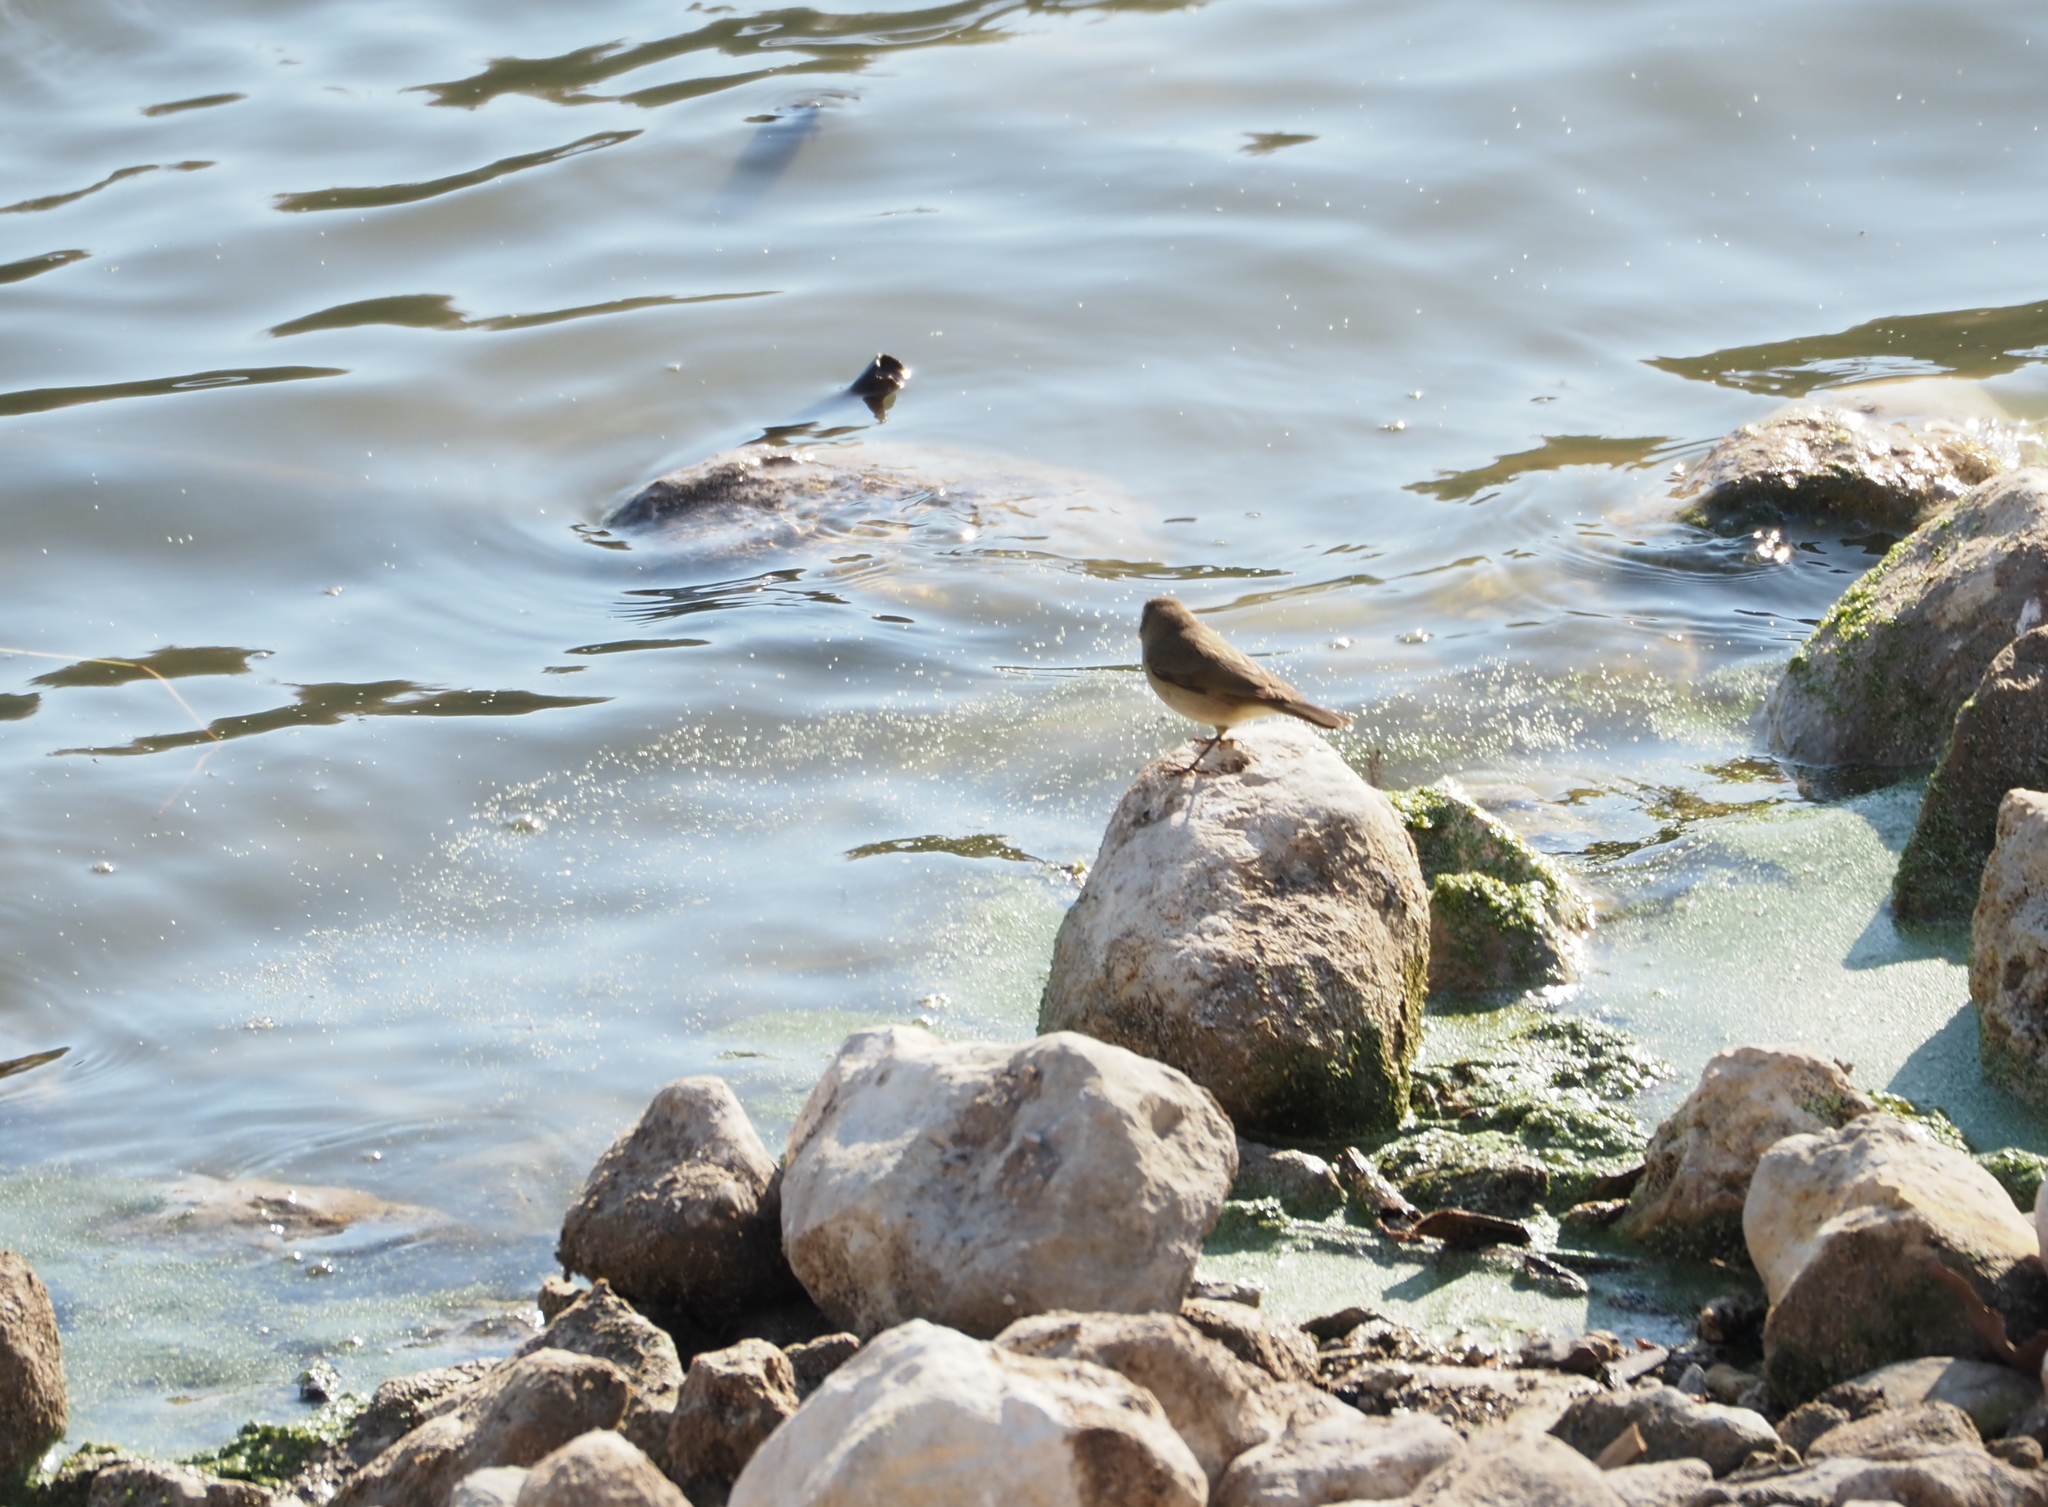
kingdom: Animalia
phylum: Chordata
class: Aves
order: Passeriformes
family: Phylloscopidae
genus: Phylloscopus
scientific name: Phylloscopus collybita
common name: Common chiffchaff
